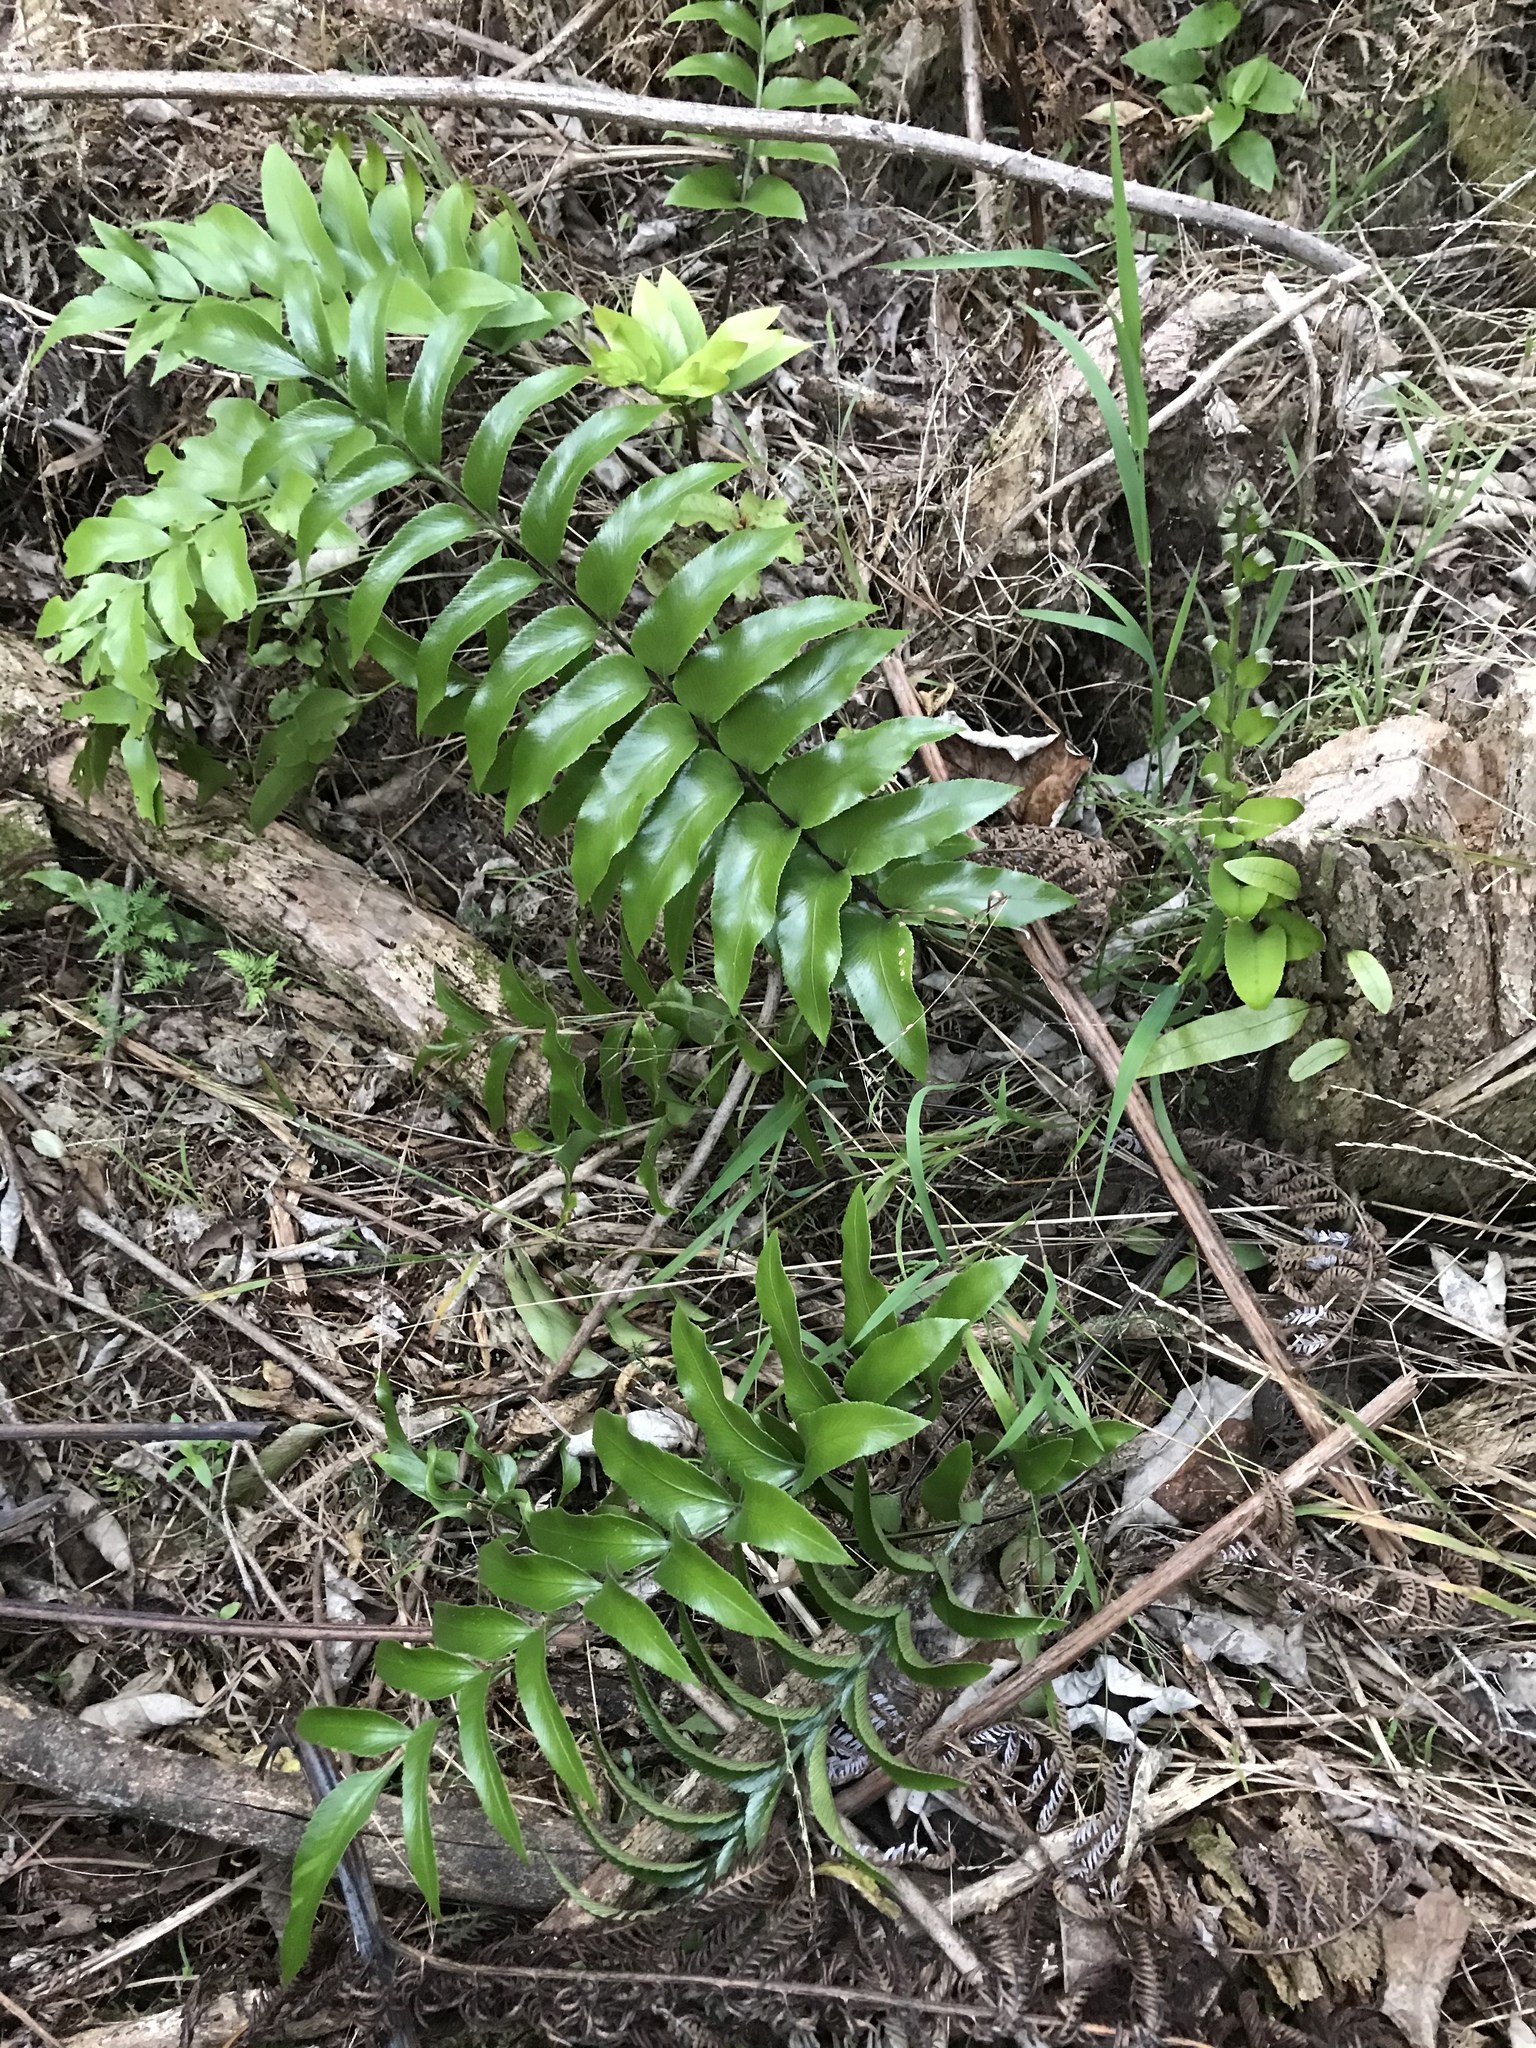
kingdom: Plantae
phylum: Tracheophyta
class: Polypodiopsida
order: Polypodiales
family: Aspleniaceae
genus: Asplenium
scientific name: Asplenium oblongifolium
